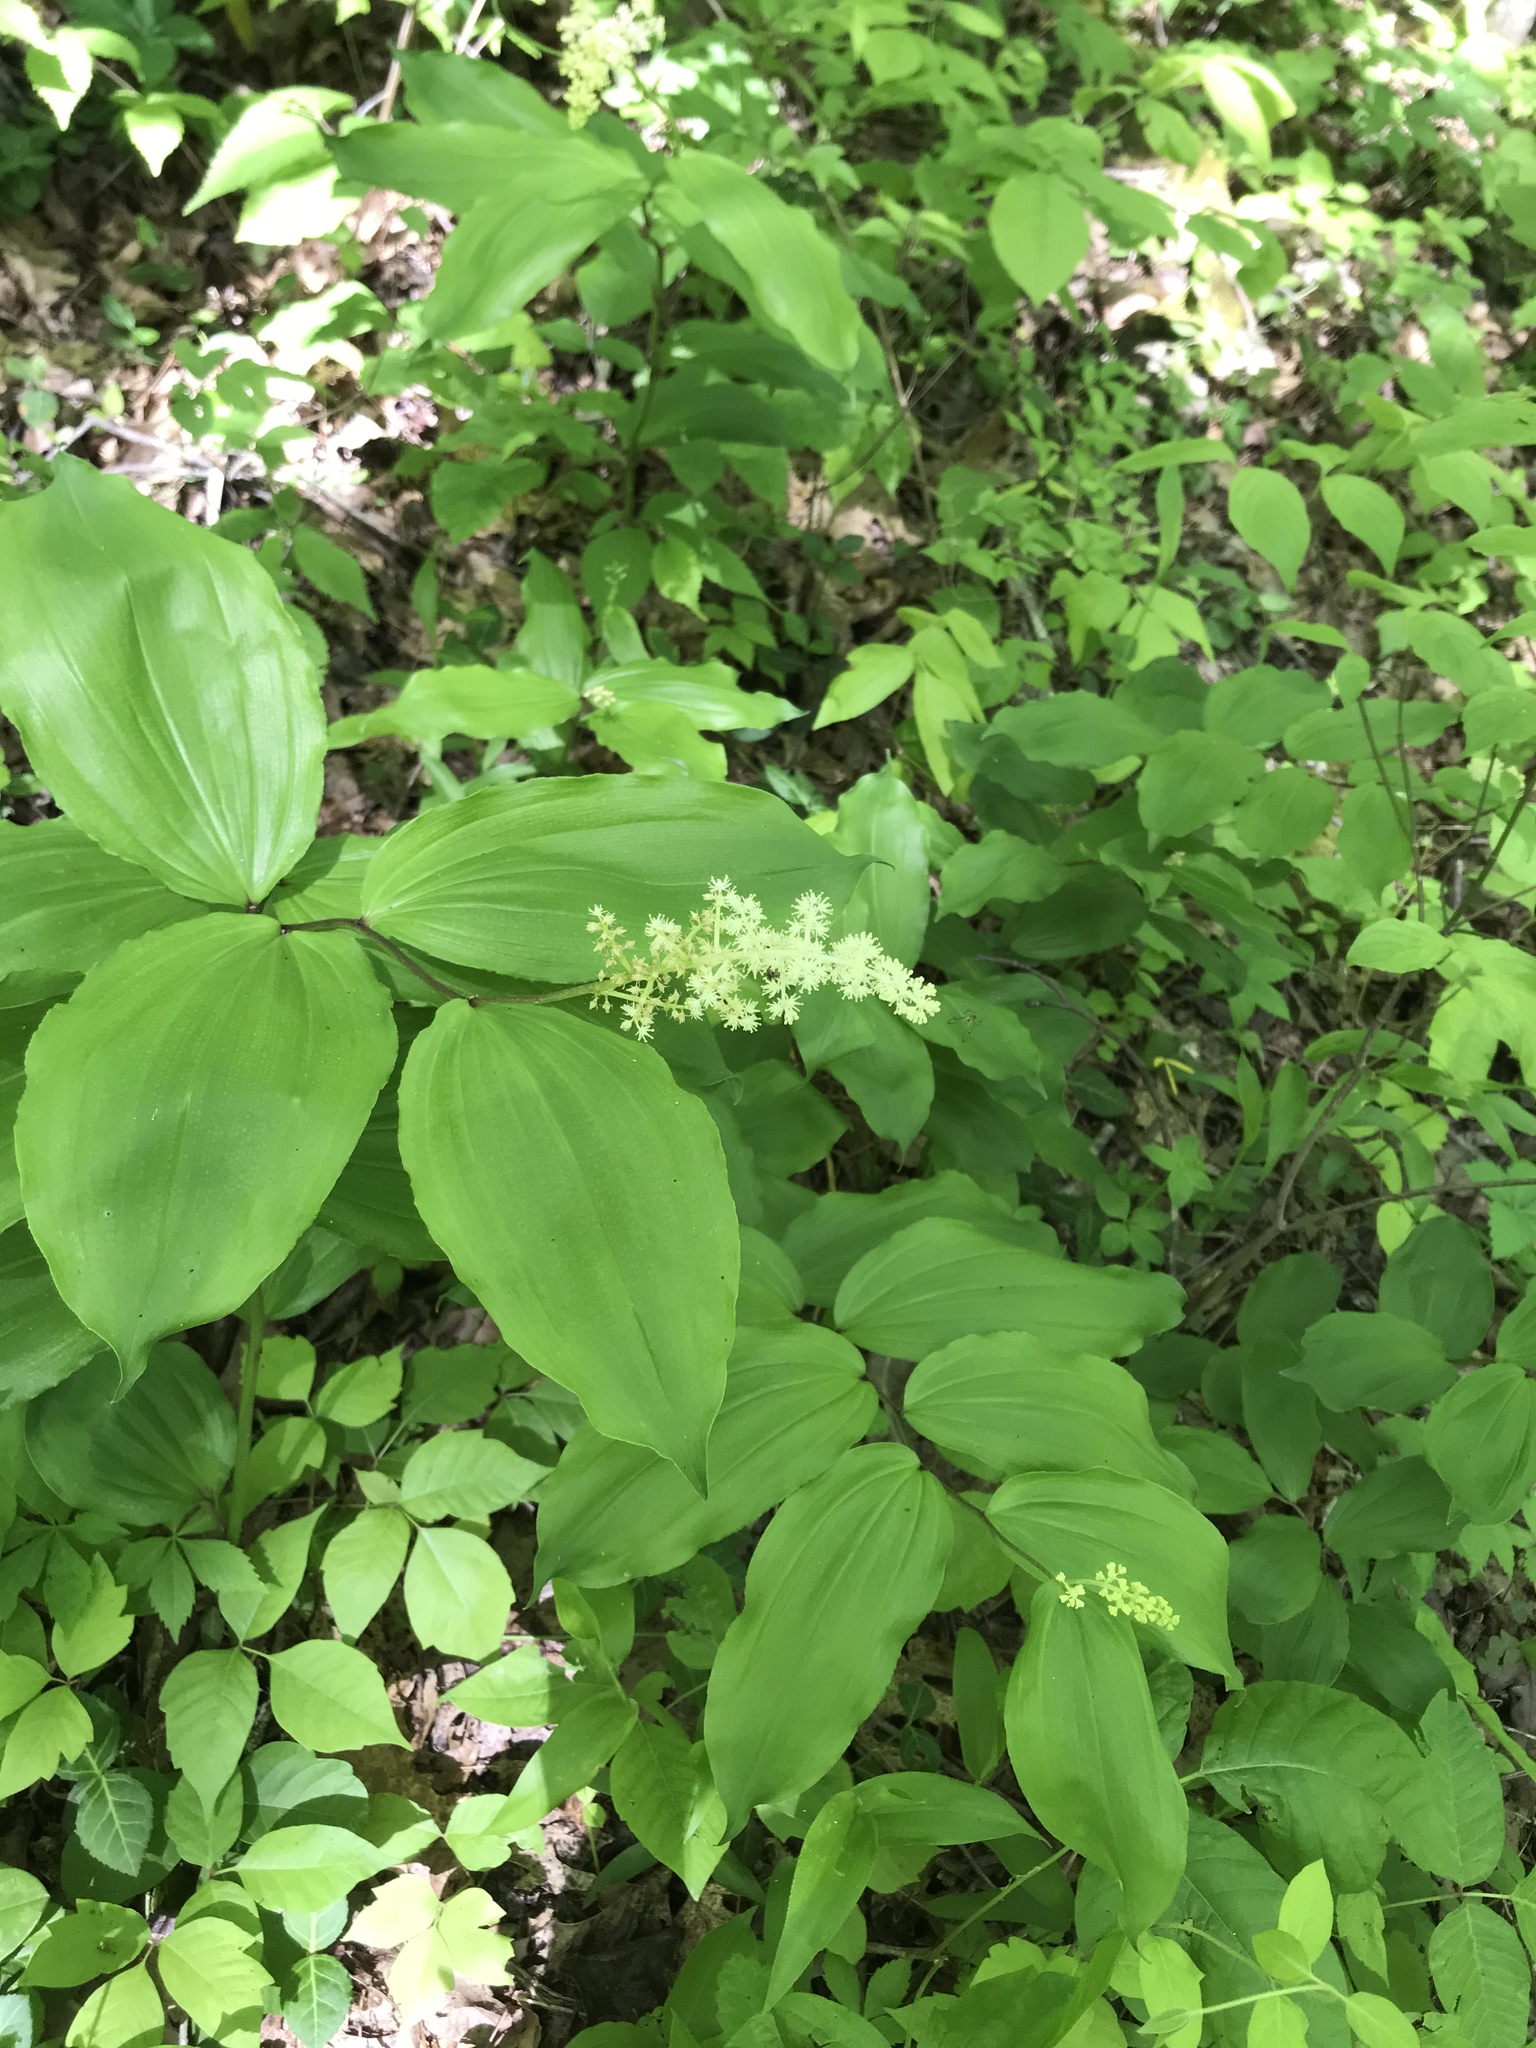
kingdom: Plantae
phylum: Tracheophyta
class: Liliopsida
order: Asparagales
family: Asparagaceae
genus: Maianthemum
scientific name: Maianthemum racemosum
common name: False spikenard
